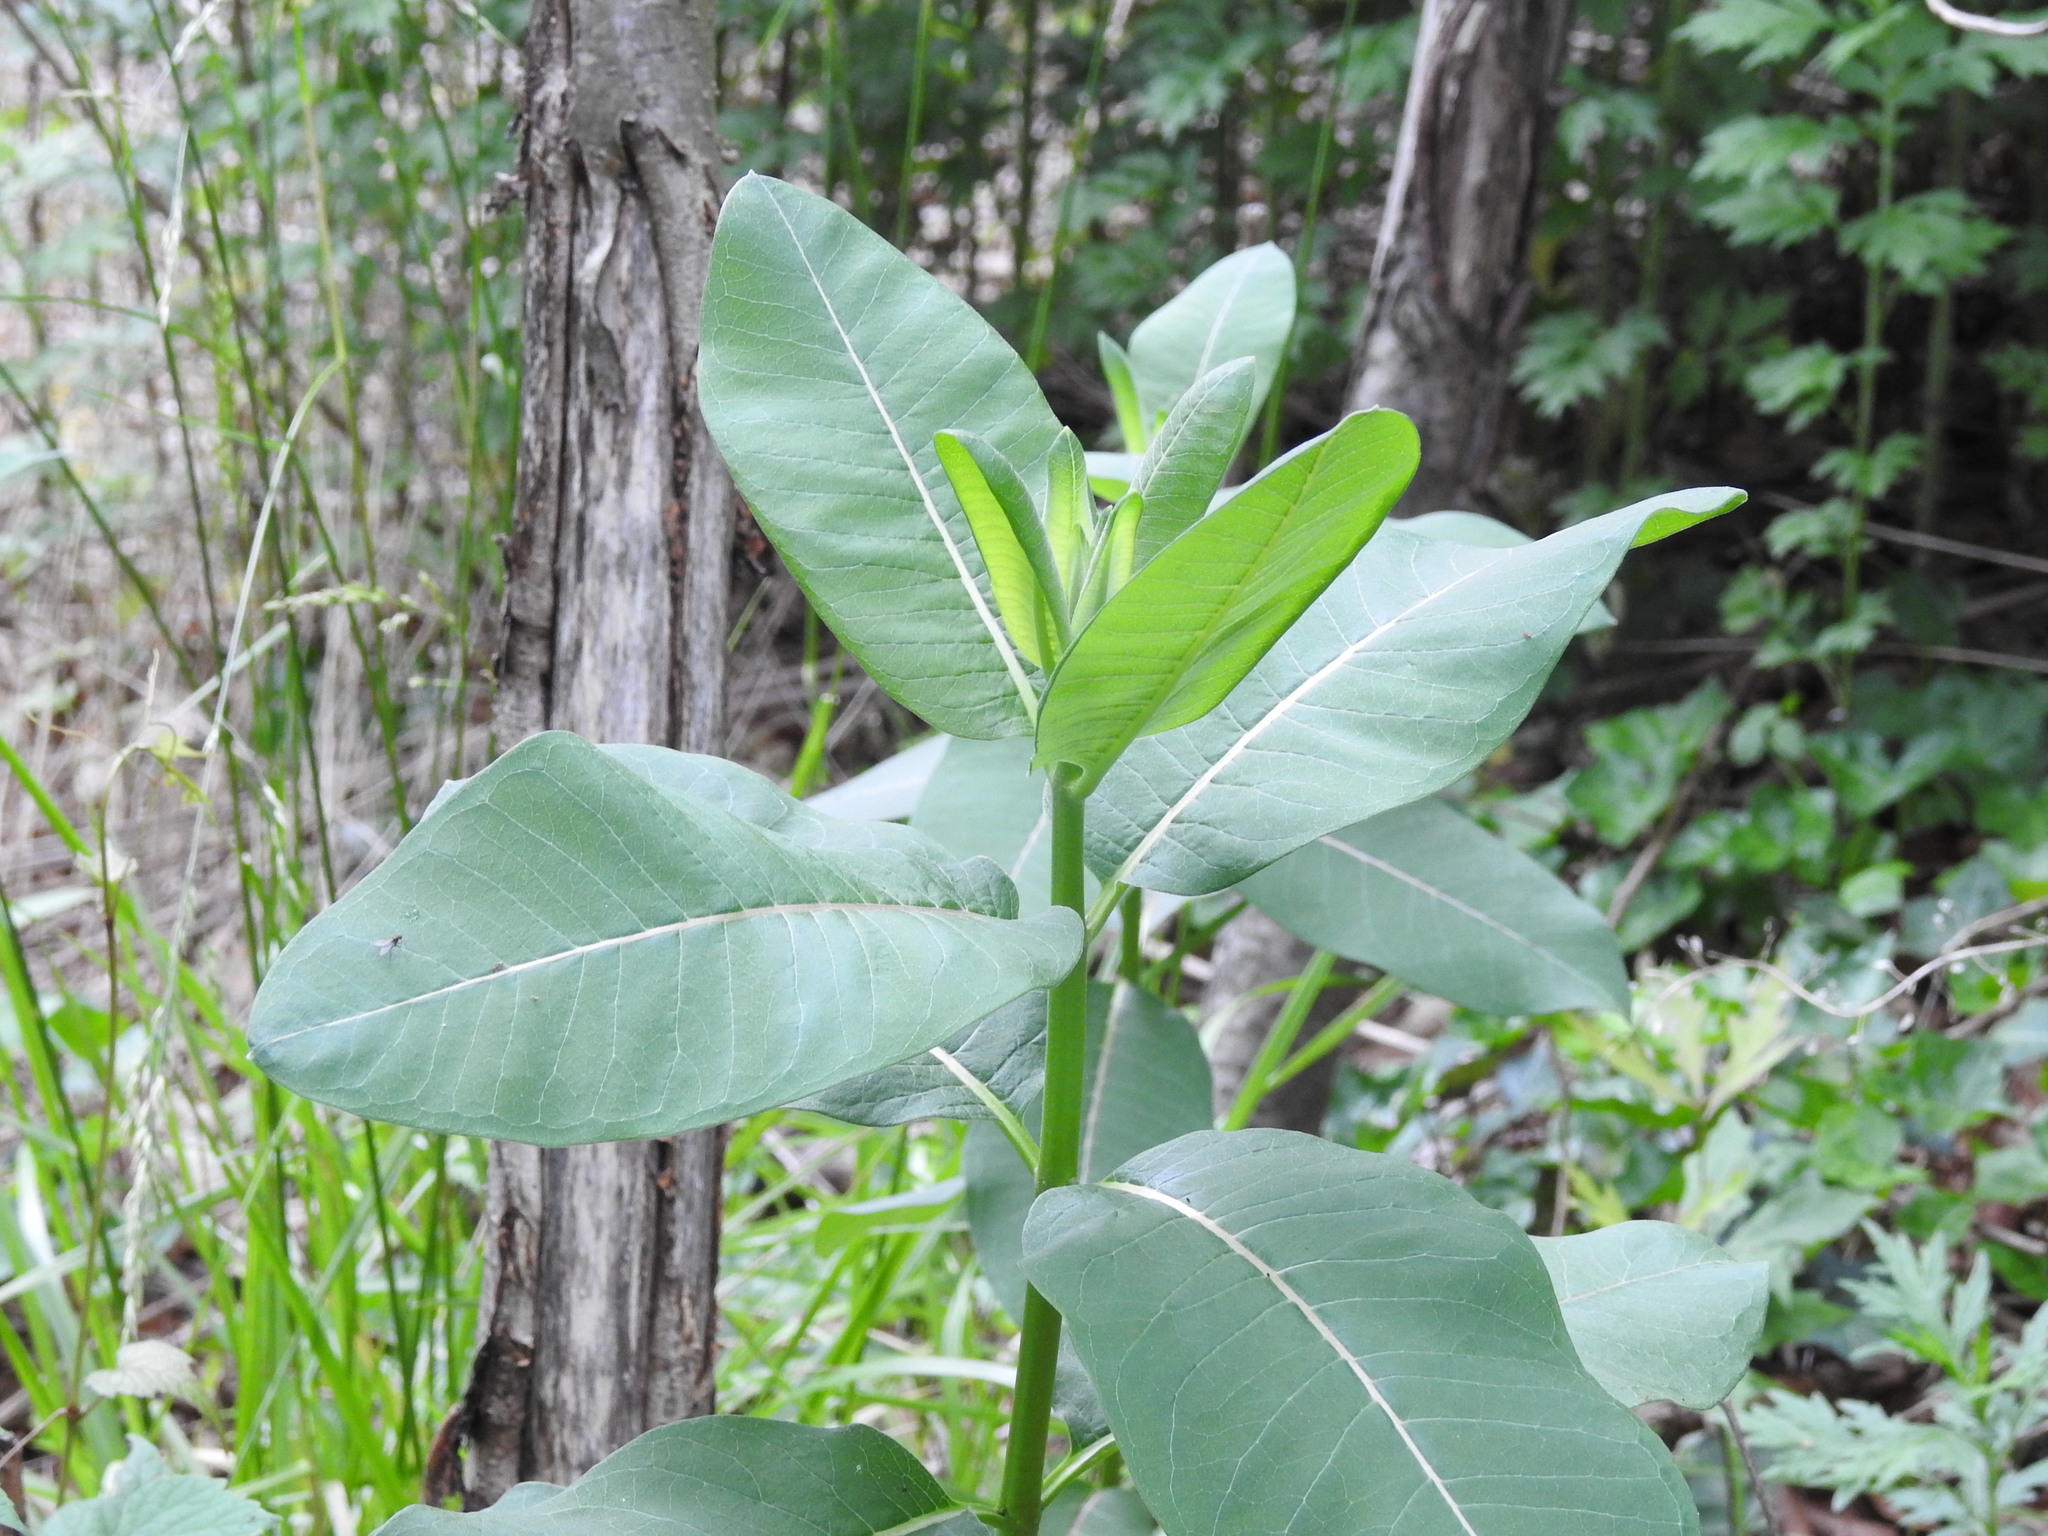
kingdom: Plantae
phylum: Tracheophyta
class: Magnoliopsida
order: Gentianales
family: Apocynaceae
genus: Asclepias
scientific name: Asclepias syriaca
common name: Common milkweed
